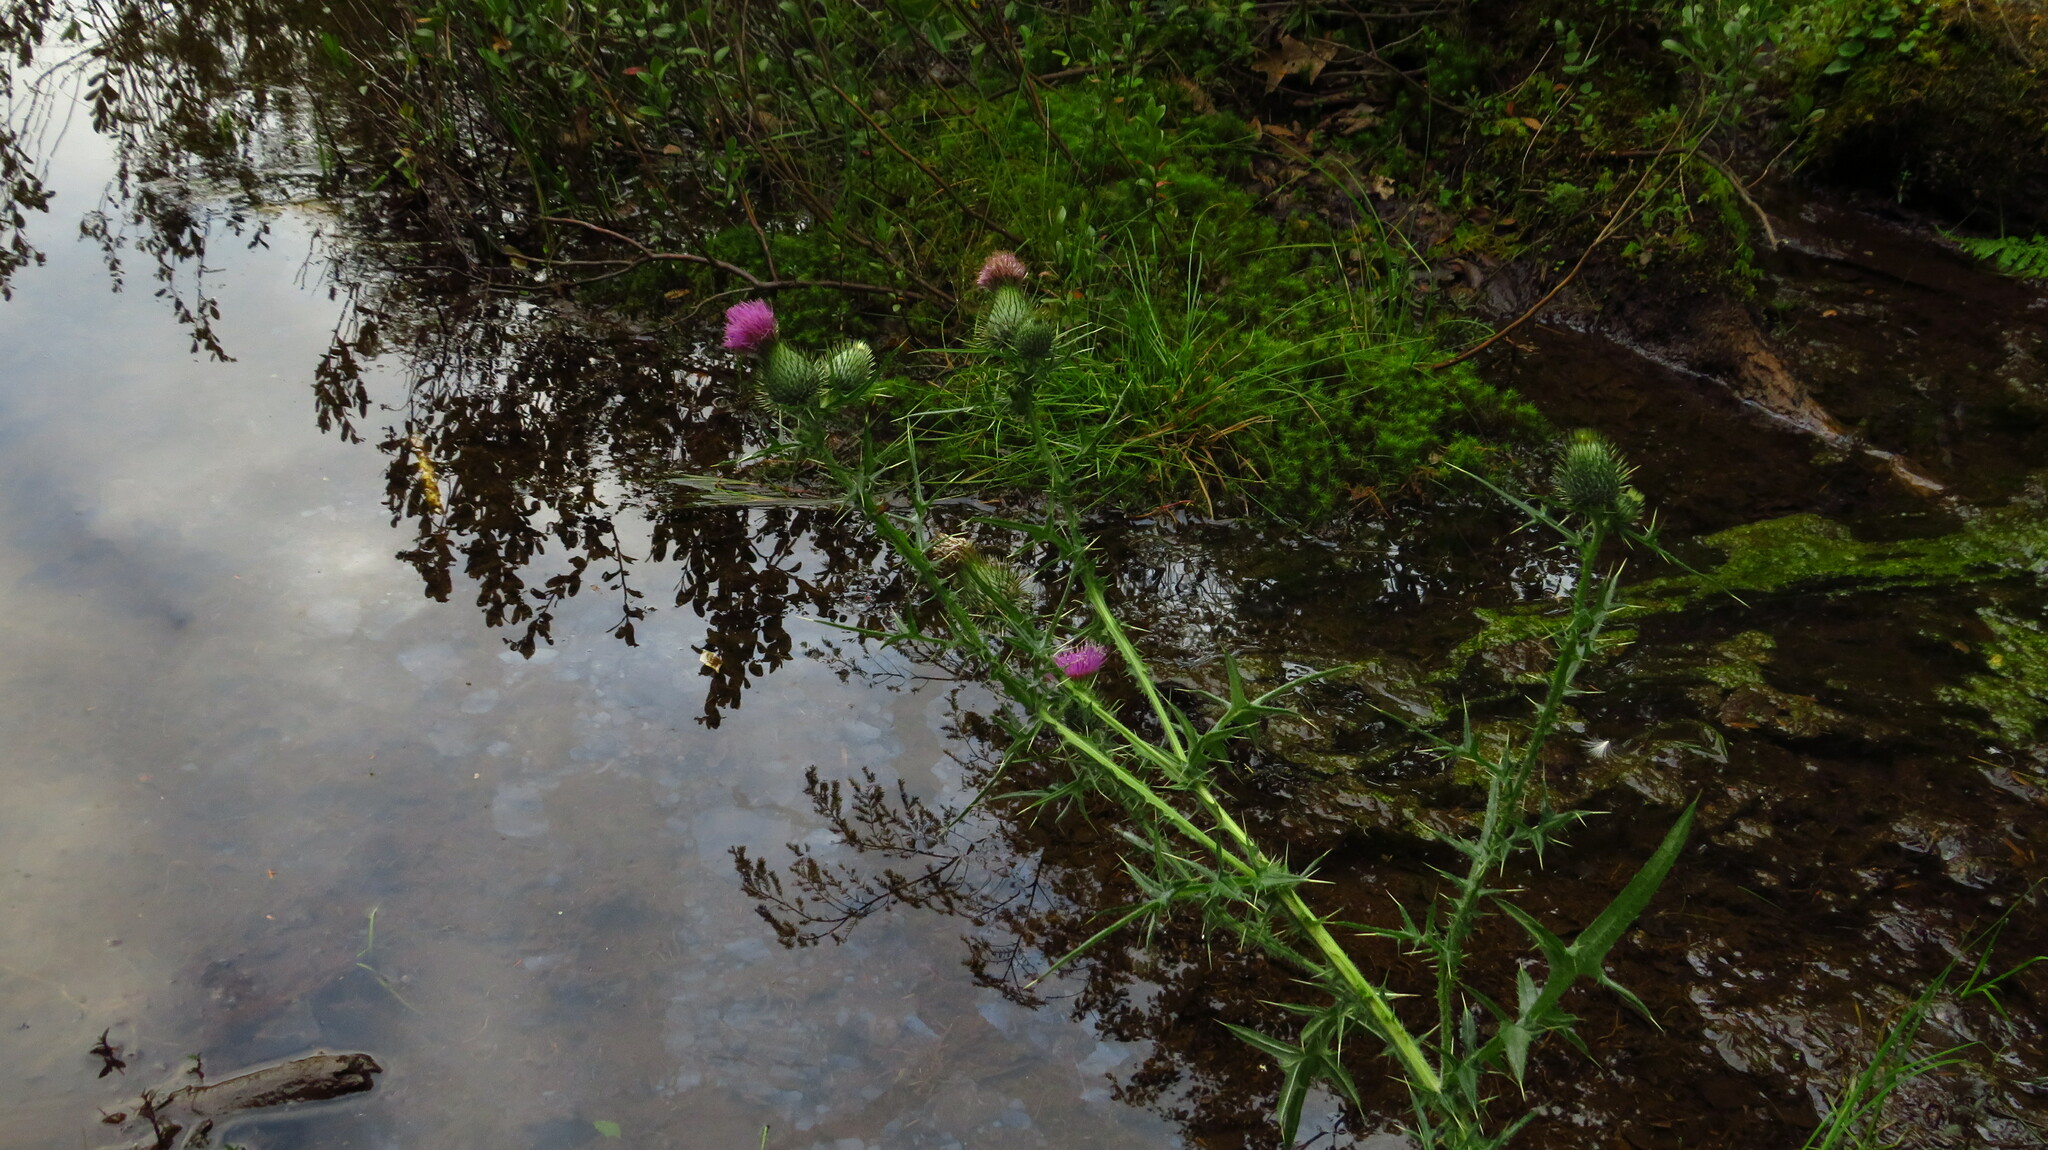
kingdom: Plantae
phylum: Tracheophyta
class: Magnoliopsida
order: Asterales
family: Asteraceae
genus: Cirsium
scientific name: Cirsium vulgare
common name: Bull thistle
